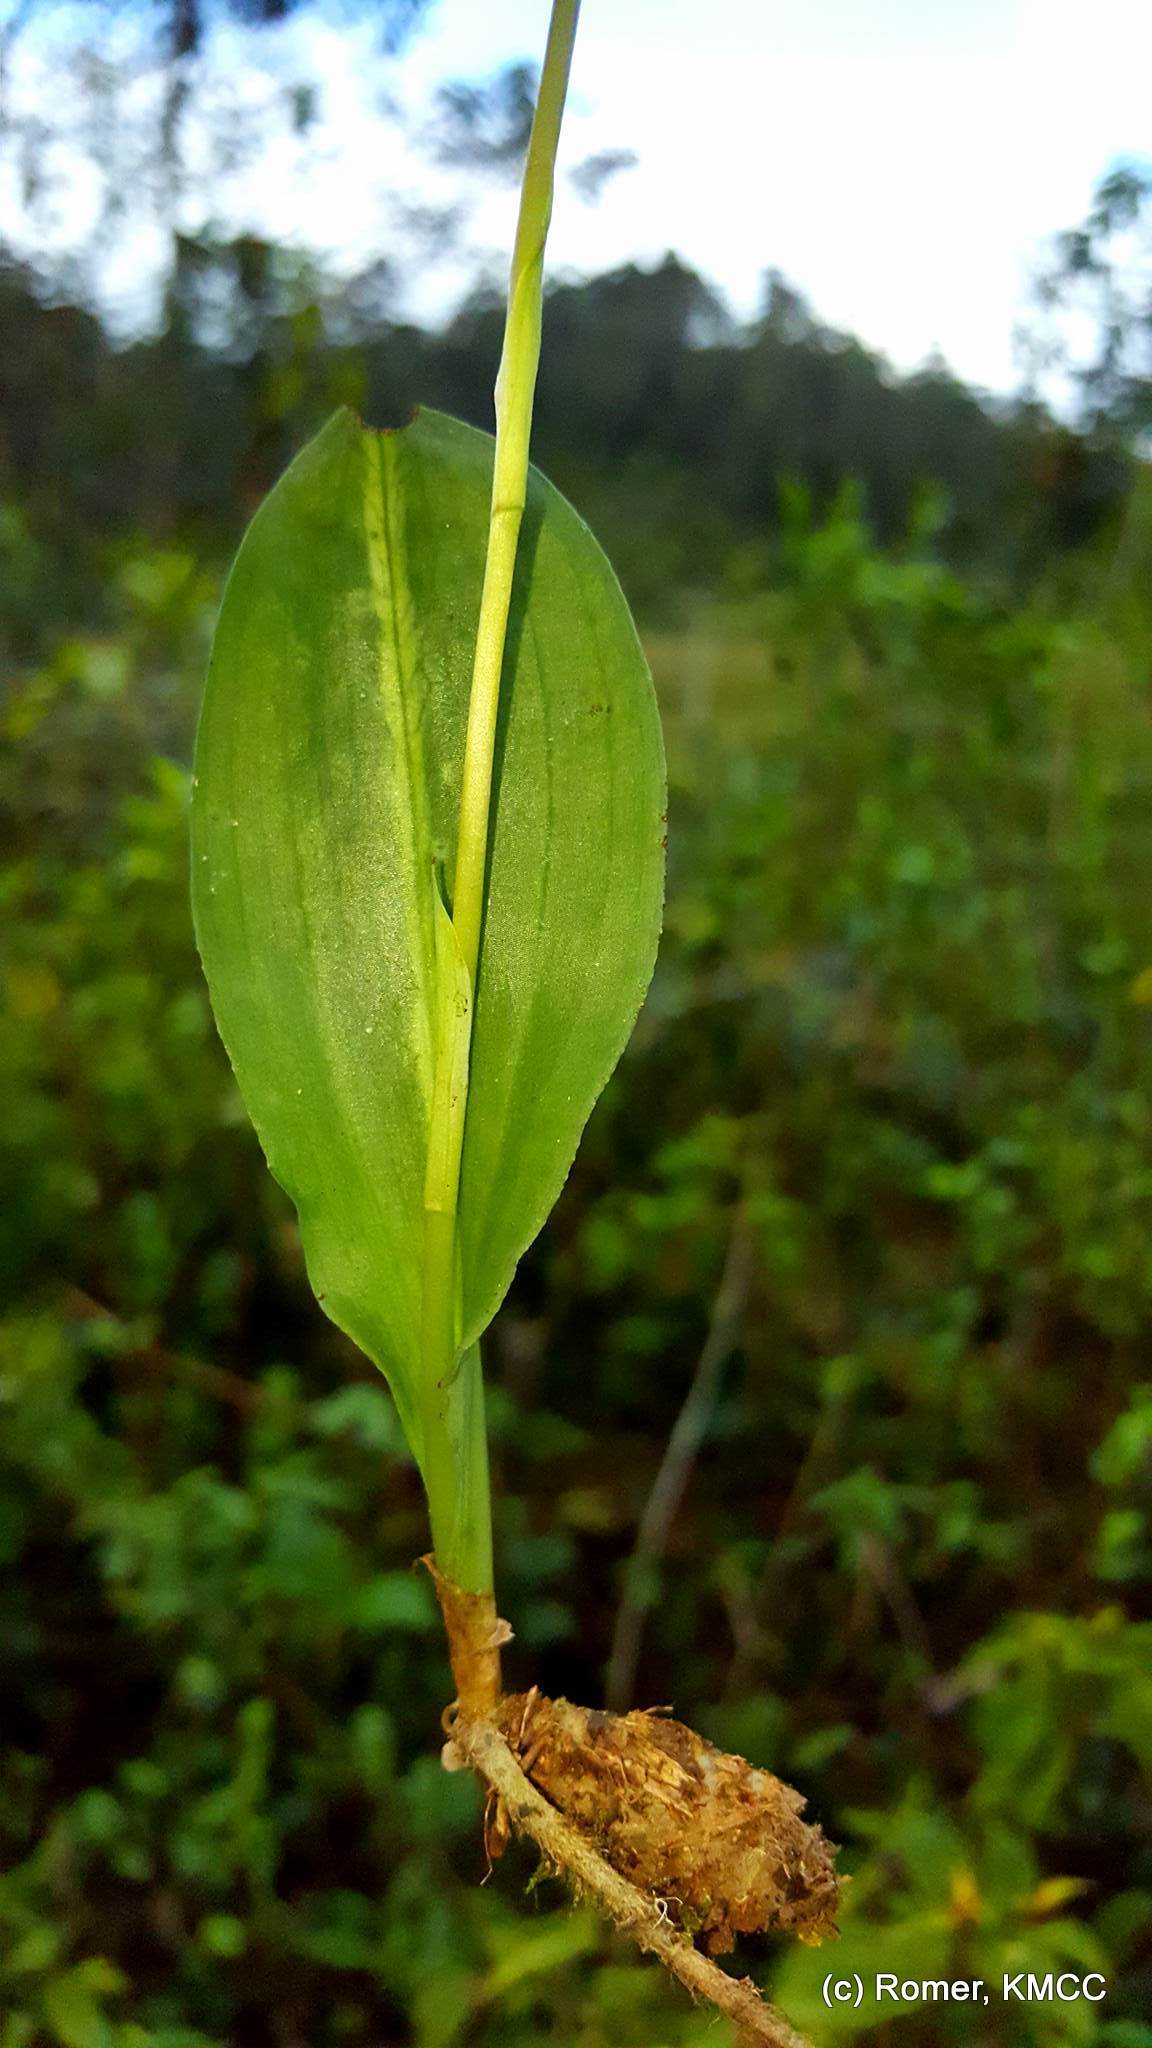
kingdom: Plantae
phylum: Tracheophyta
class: Liliopsida
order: Asparagales
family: Orchidaceae
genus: Cynorkis
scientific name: Cynorkis ridleyi
